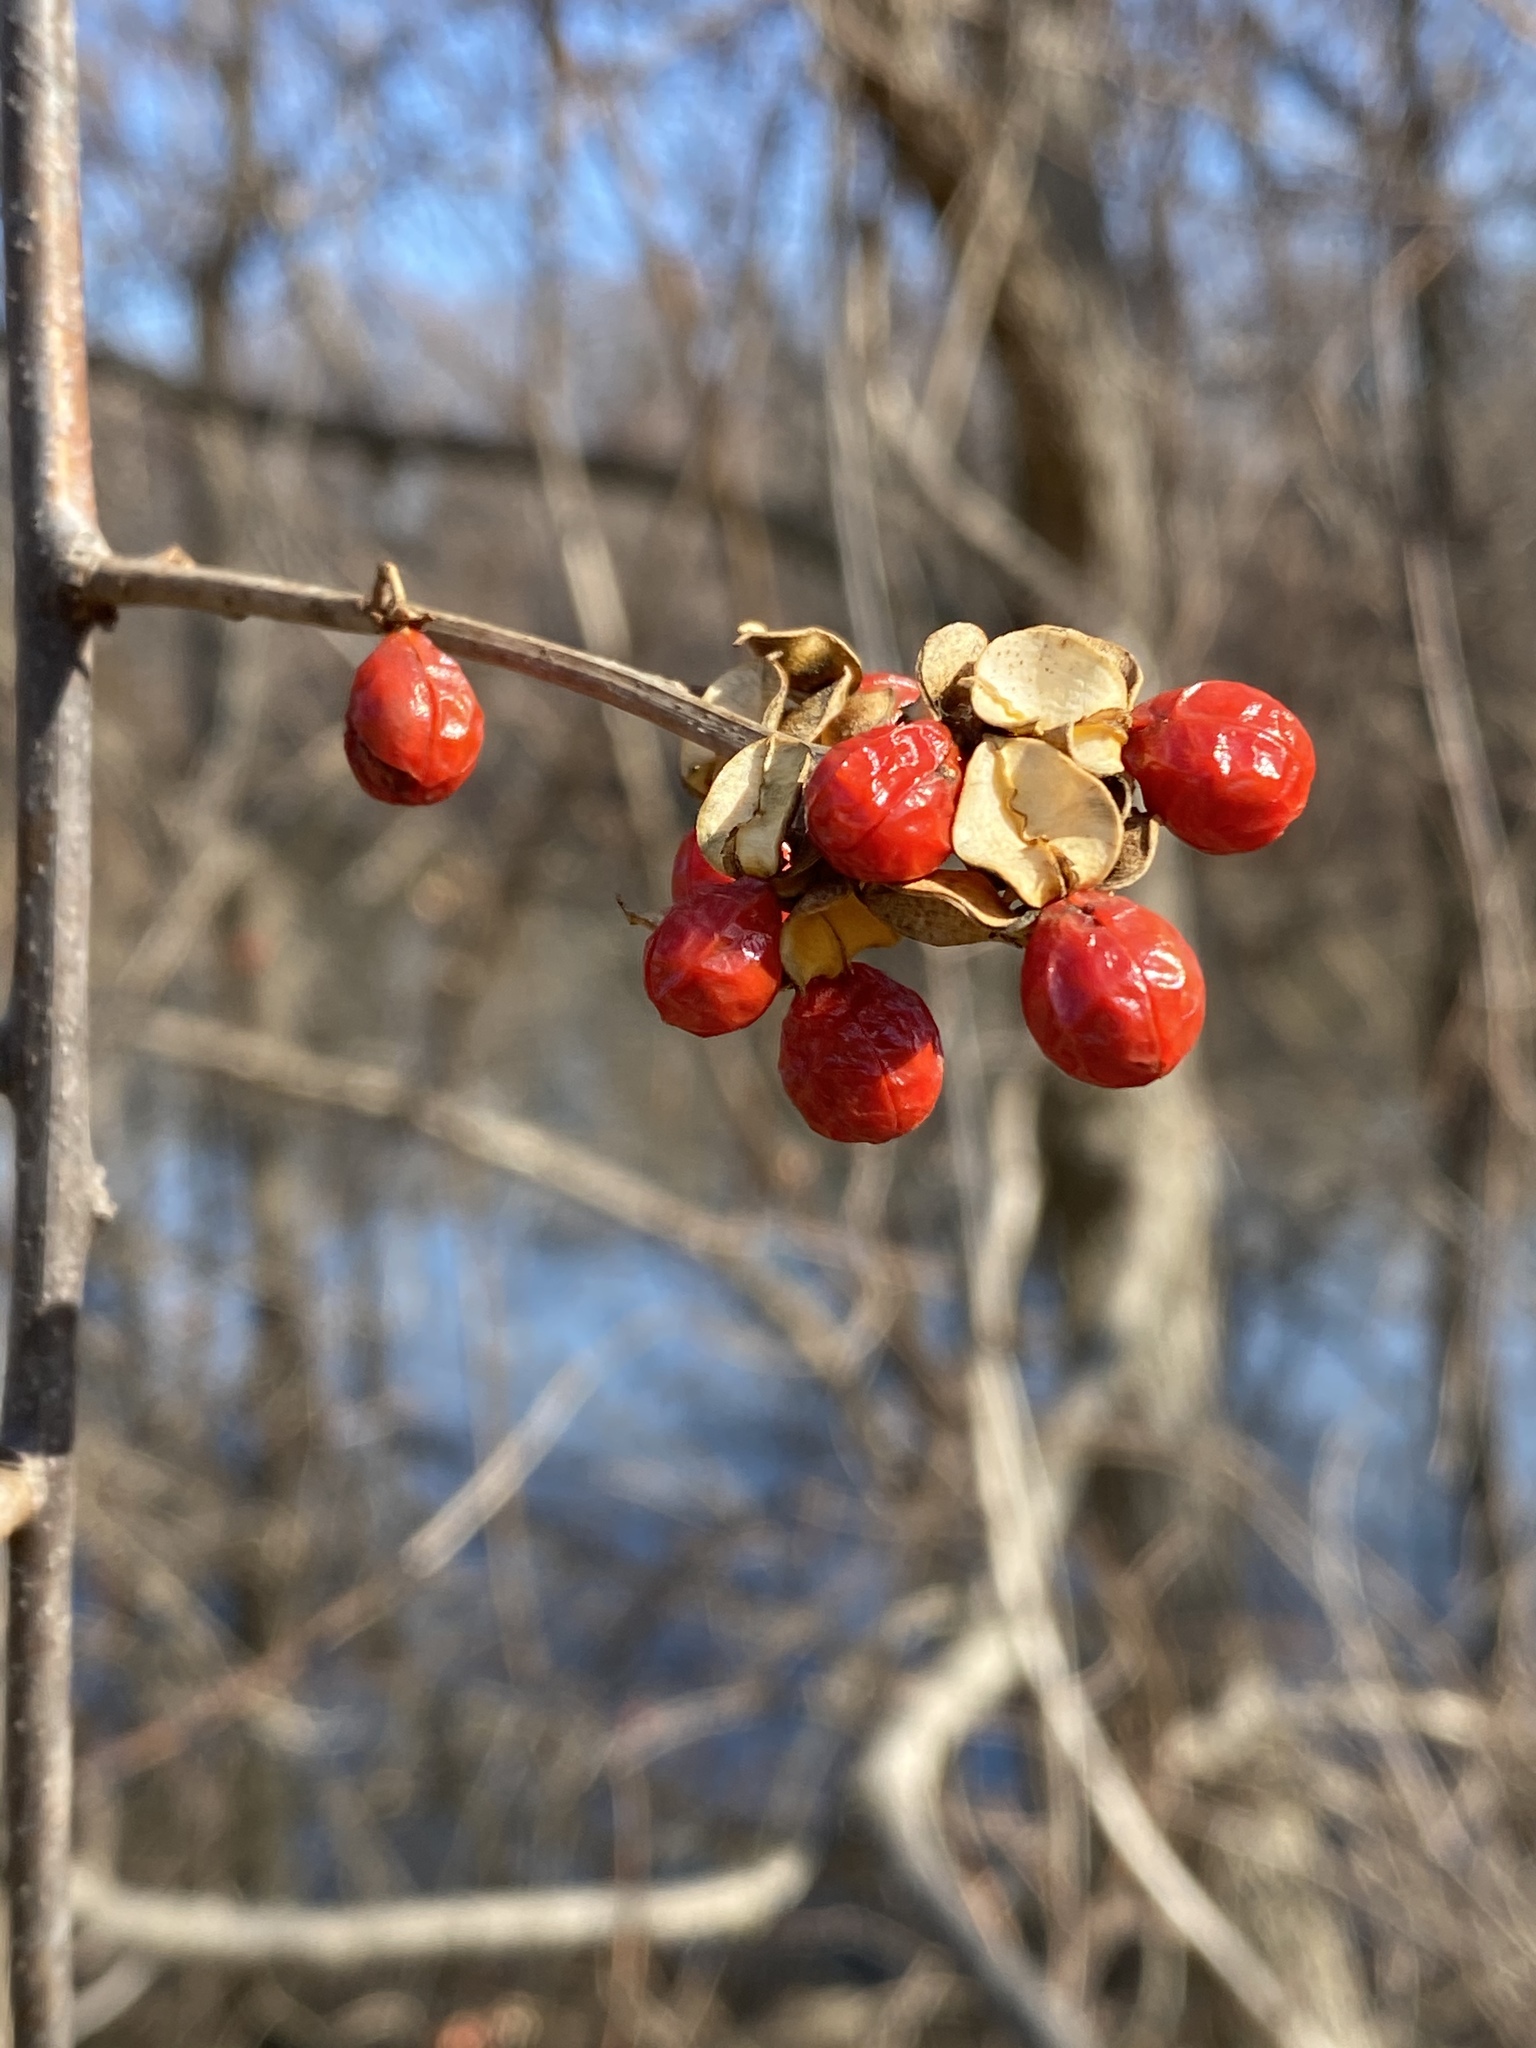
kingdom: Plantae
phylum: Tracheophyta
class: Magnoliopsida
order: Celastrales
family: Celastraceae
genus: Celastrus
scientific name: Celastrus orbiculatus
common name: Oriental bittersweet
